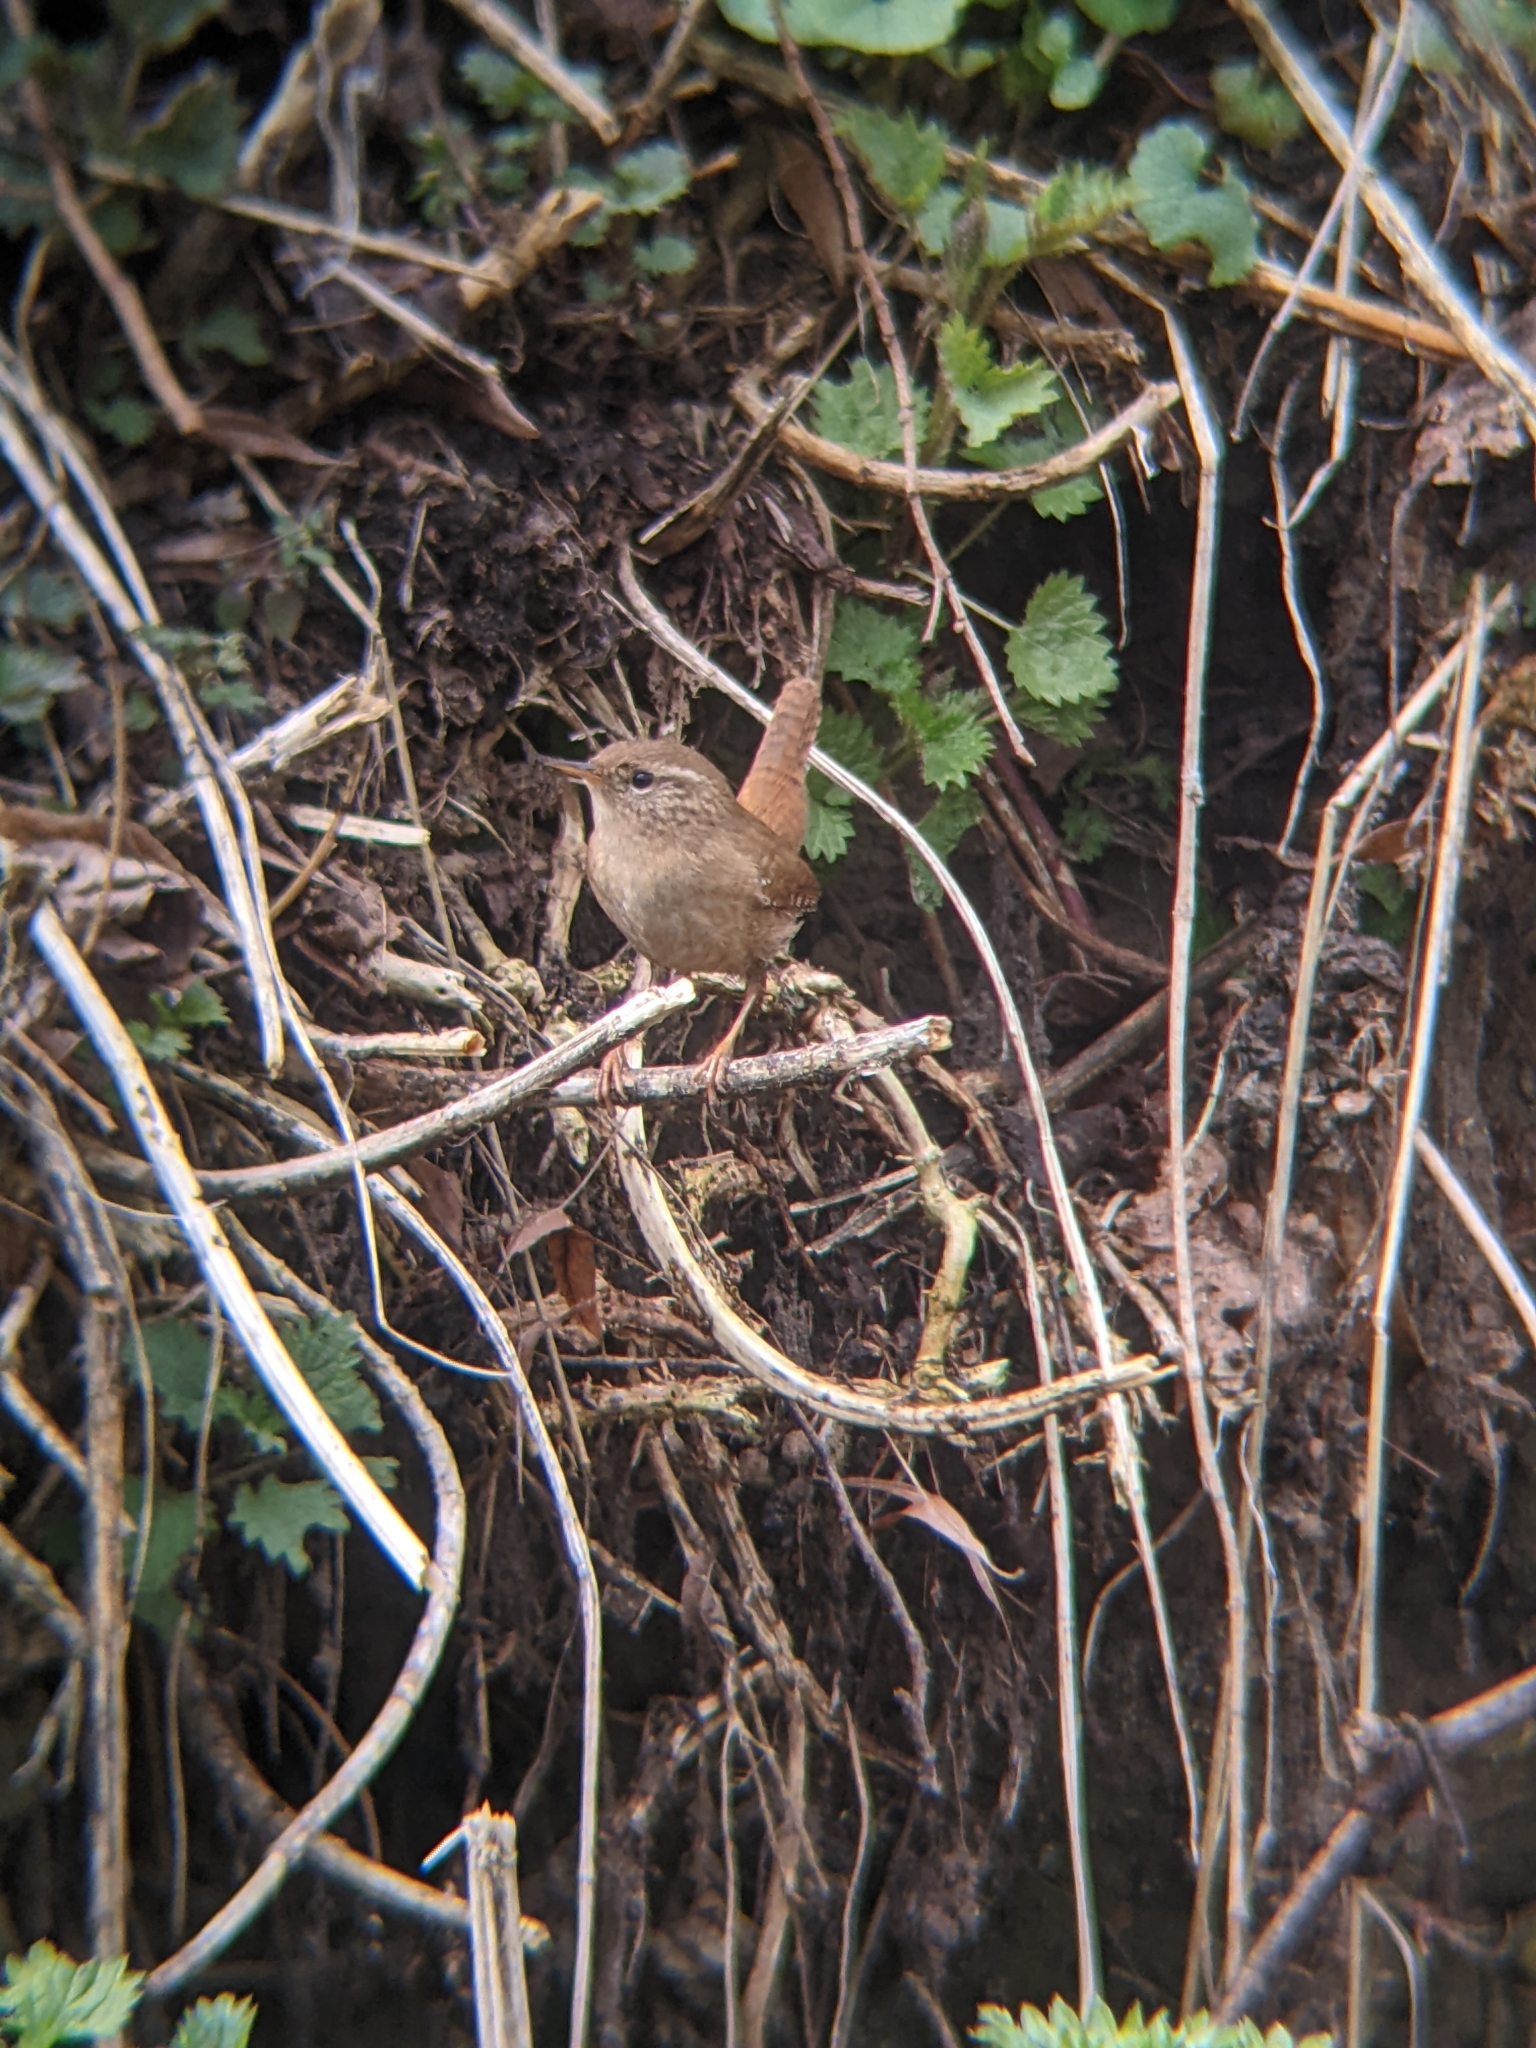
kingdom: Animalia
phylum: Chordata
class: Aves
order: Passeriformes
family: Troglodytidae
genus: Troglodytes
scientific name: Troglodytes troglodytes
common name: Eurasian wren
